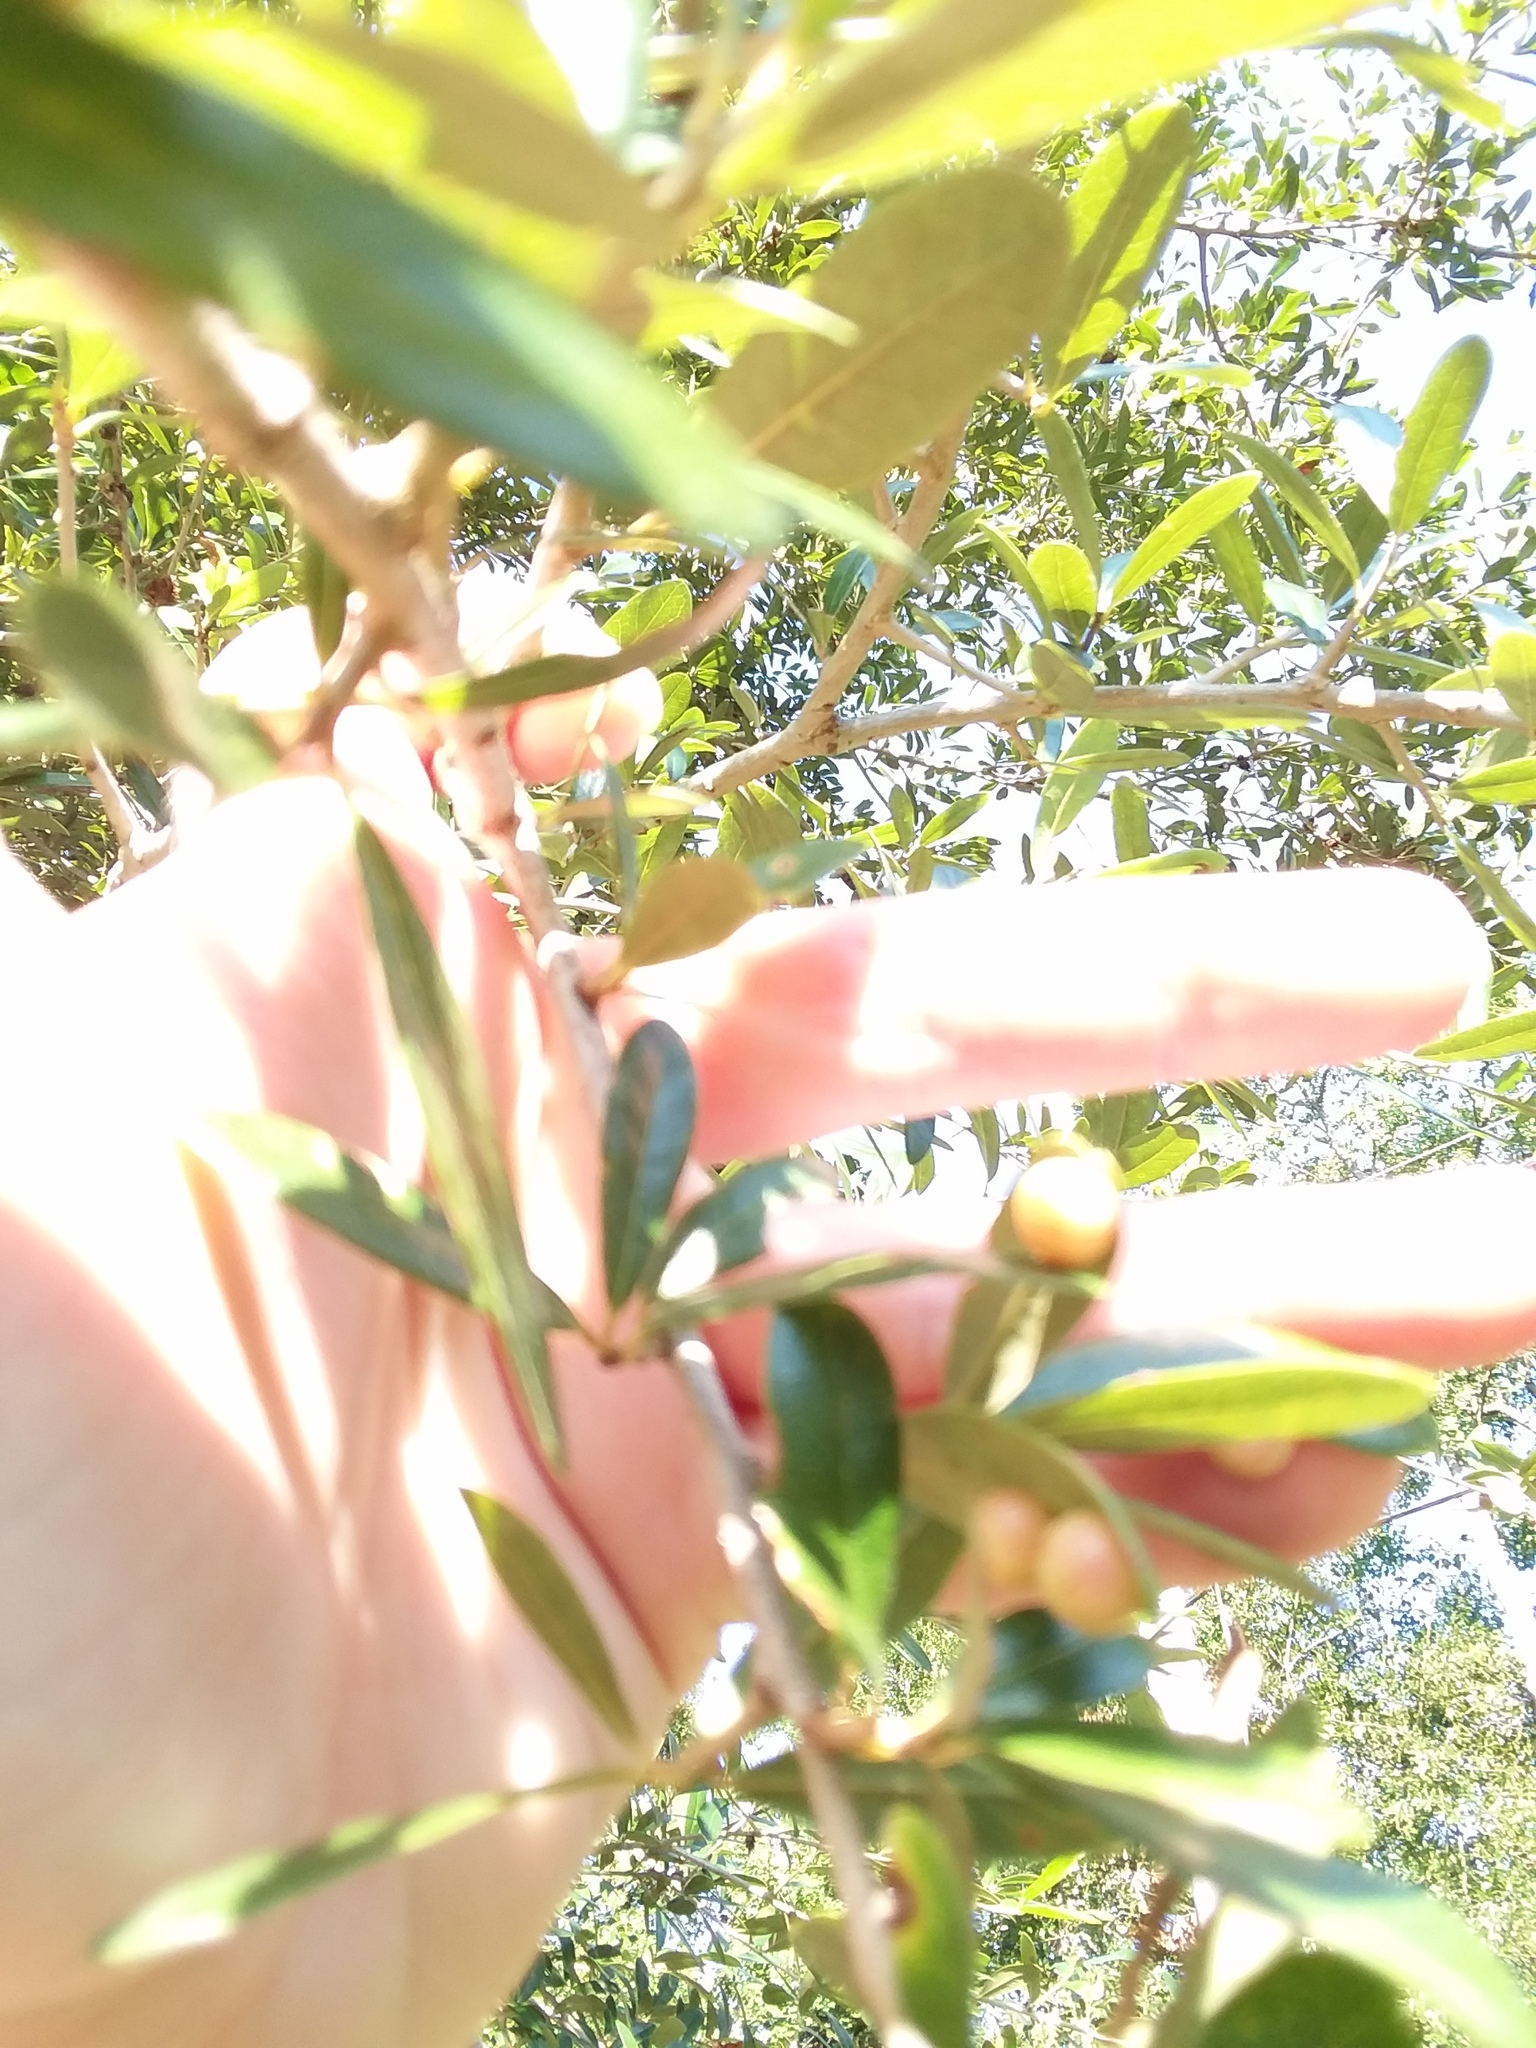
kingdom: Animalia
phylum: Arthropoda
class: Insecta
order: Hymenoptera
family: Cynipidae
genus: Belonocnema
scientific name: Belonocnema treatae
